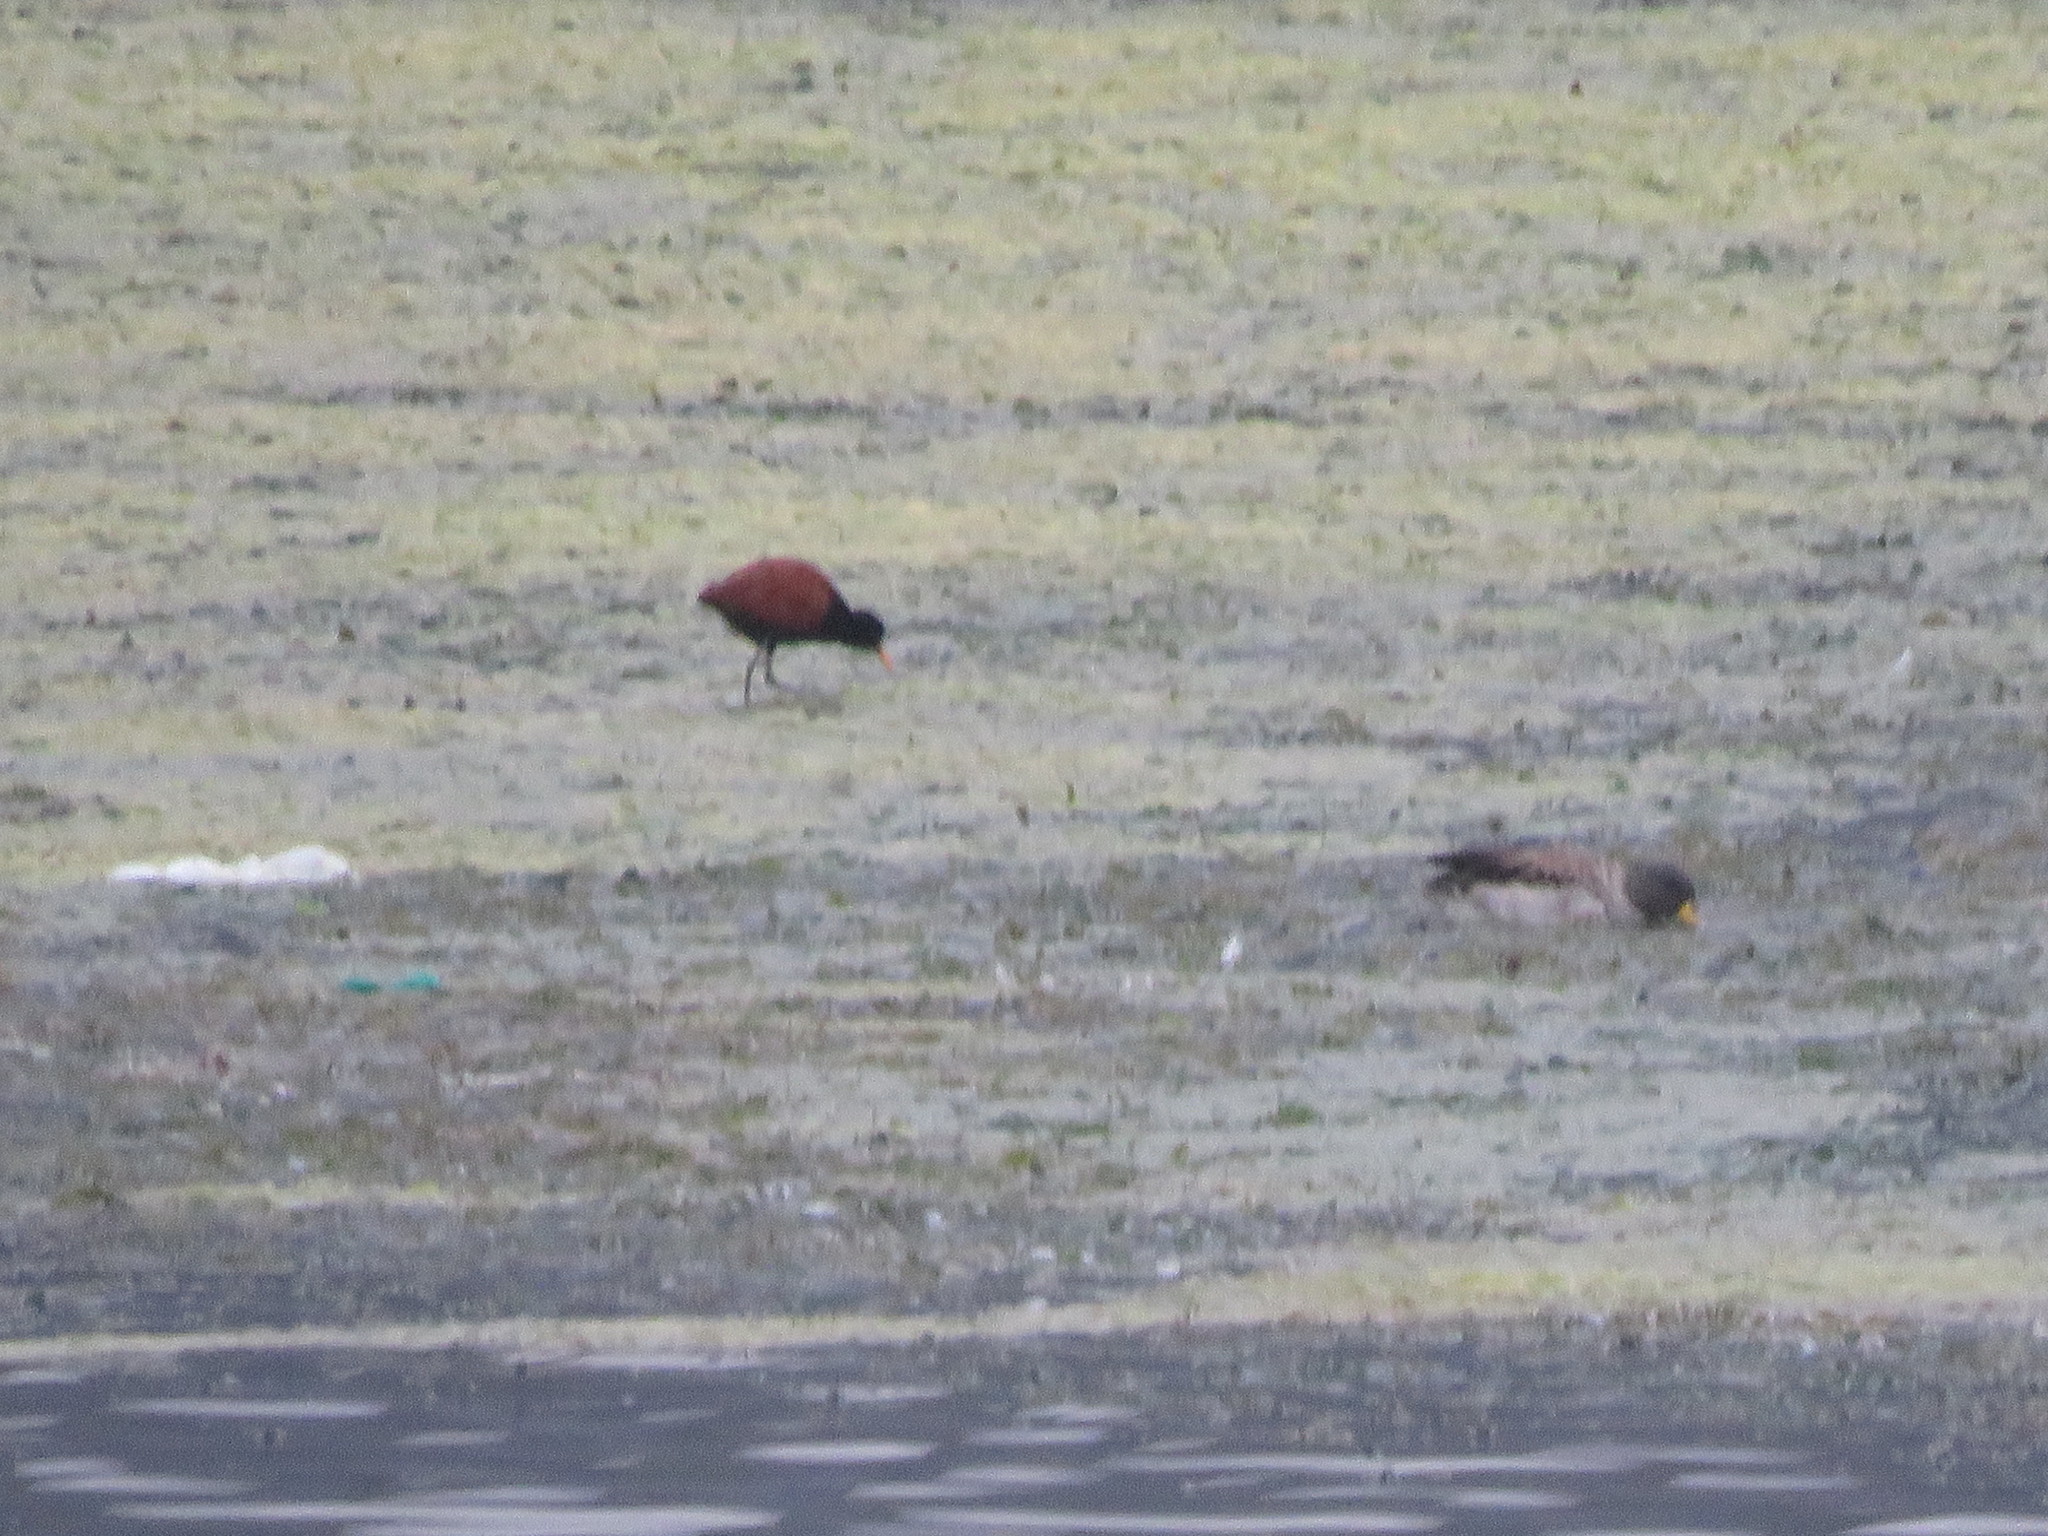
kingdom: Animalia
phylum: Chordata
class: Aves
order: Charadriiformes
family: Jacanidae
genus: Jacana
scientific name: Jacana jacana
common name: Wattled jacana
